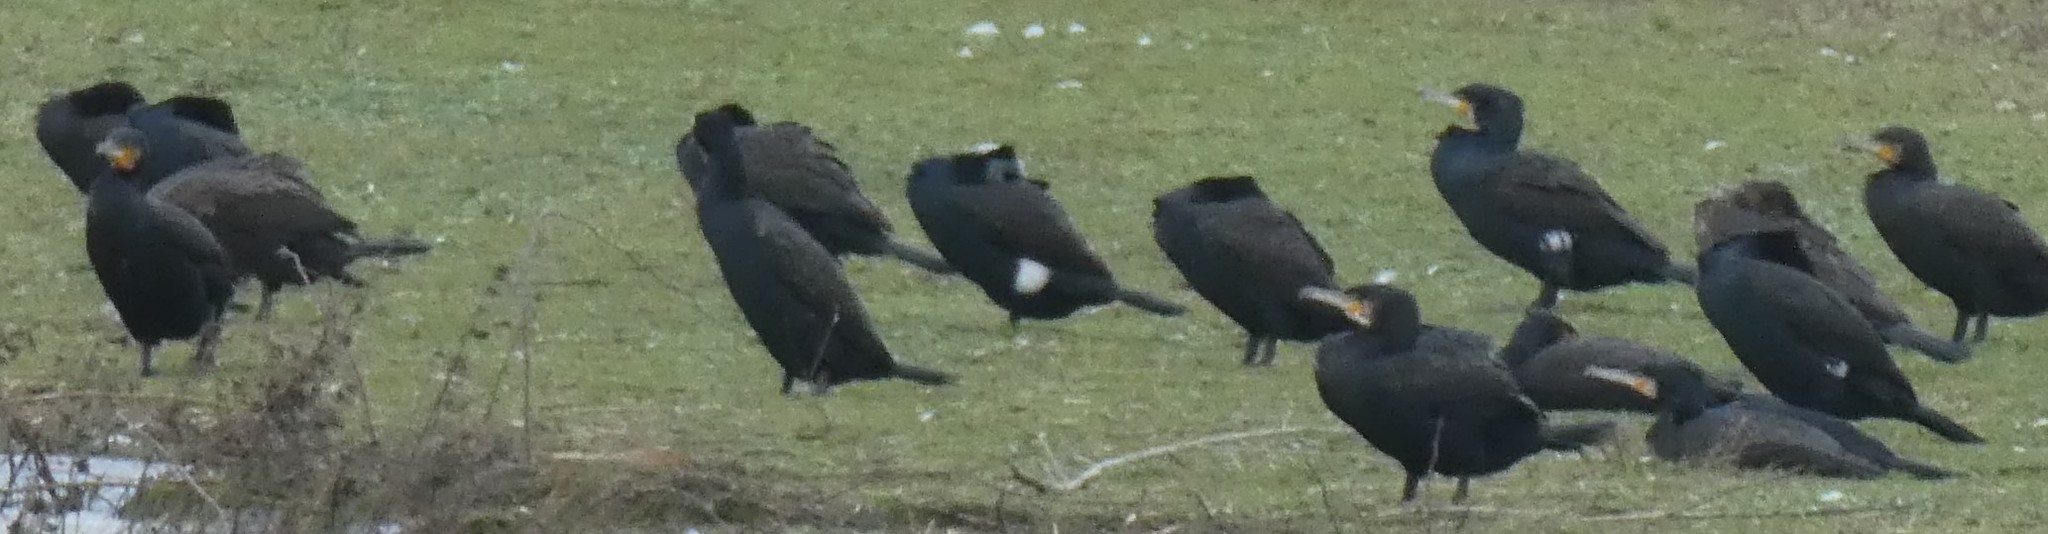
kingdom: Animalia
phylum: Chordata
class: Aves
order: Suliformes
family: Phalacrocoracidae
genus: Phalacrocorax
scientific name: Phalacrocorax carbo
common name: Great cormorant
